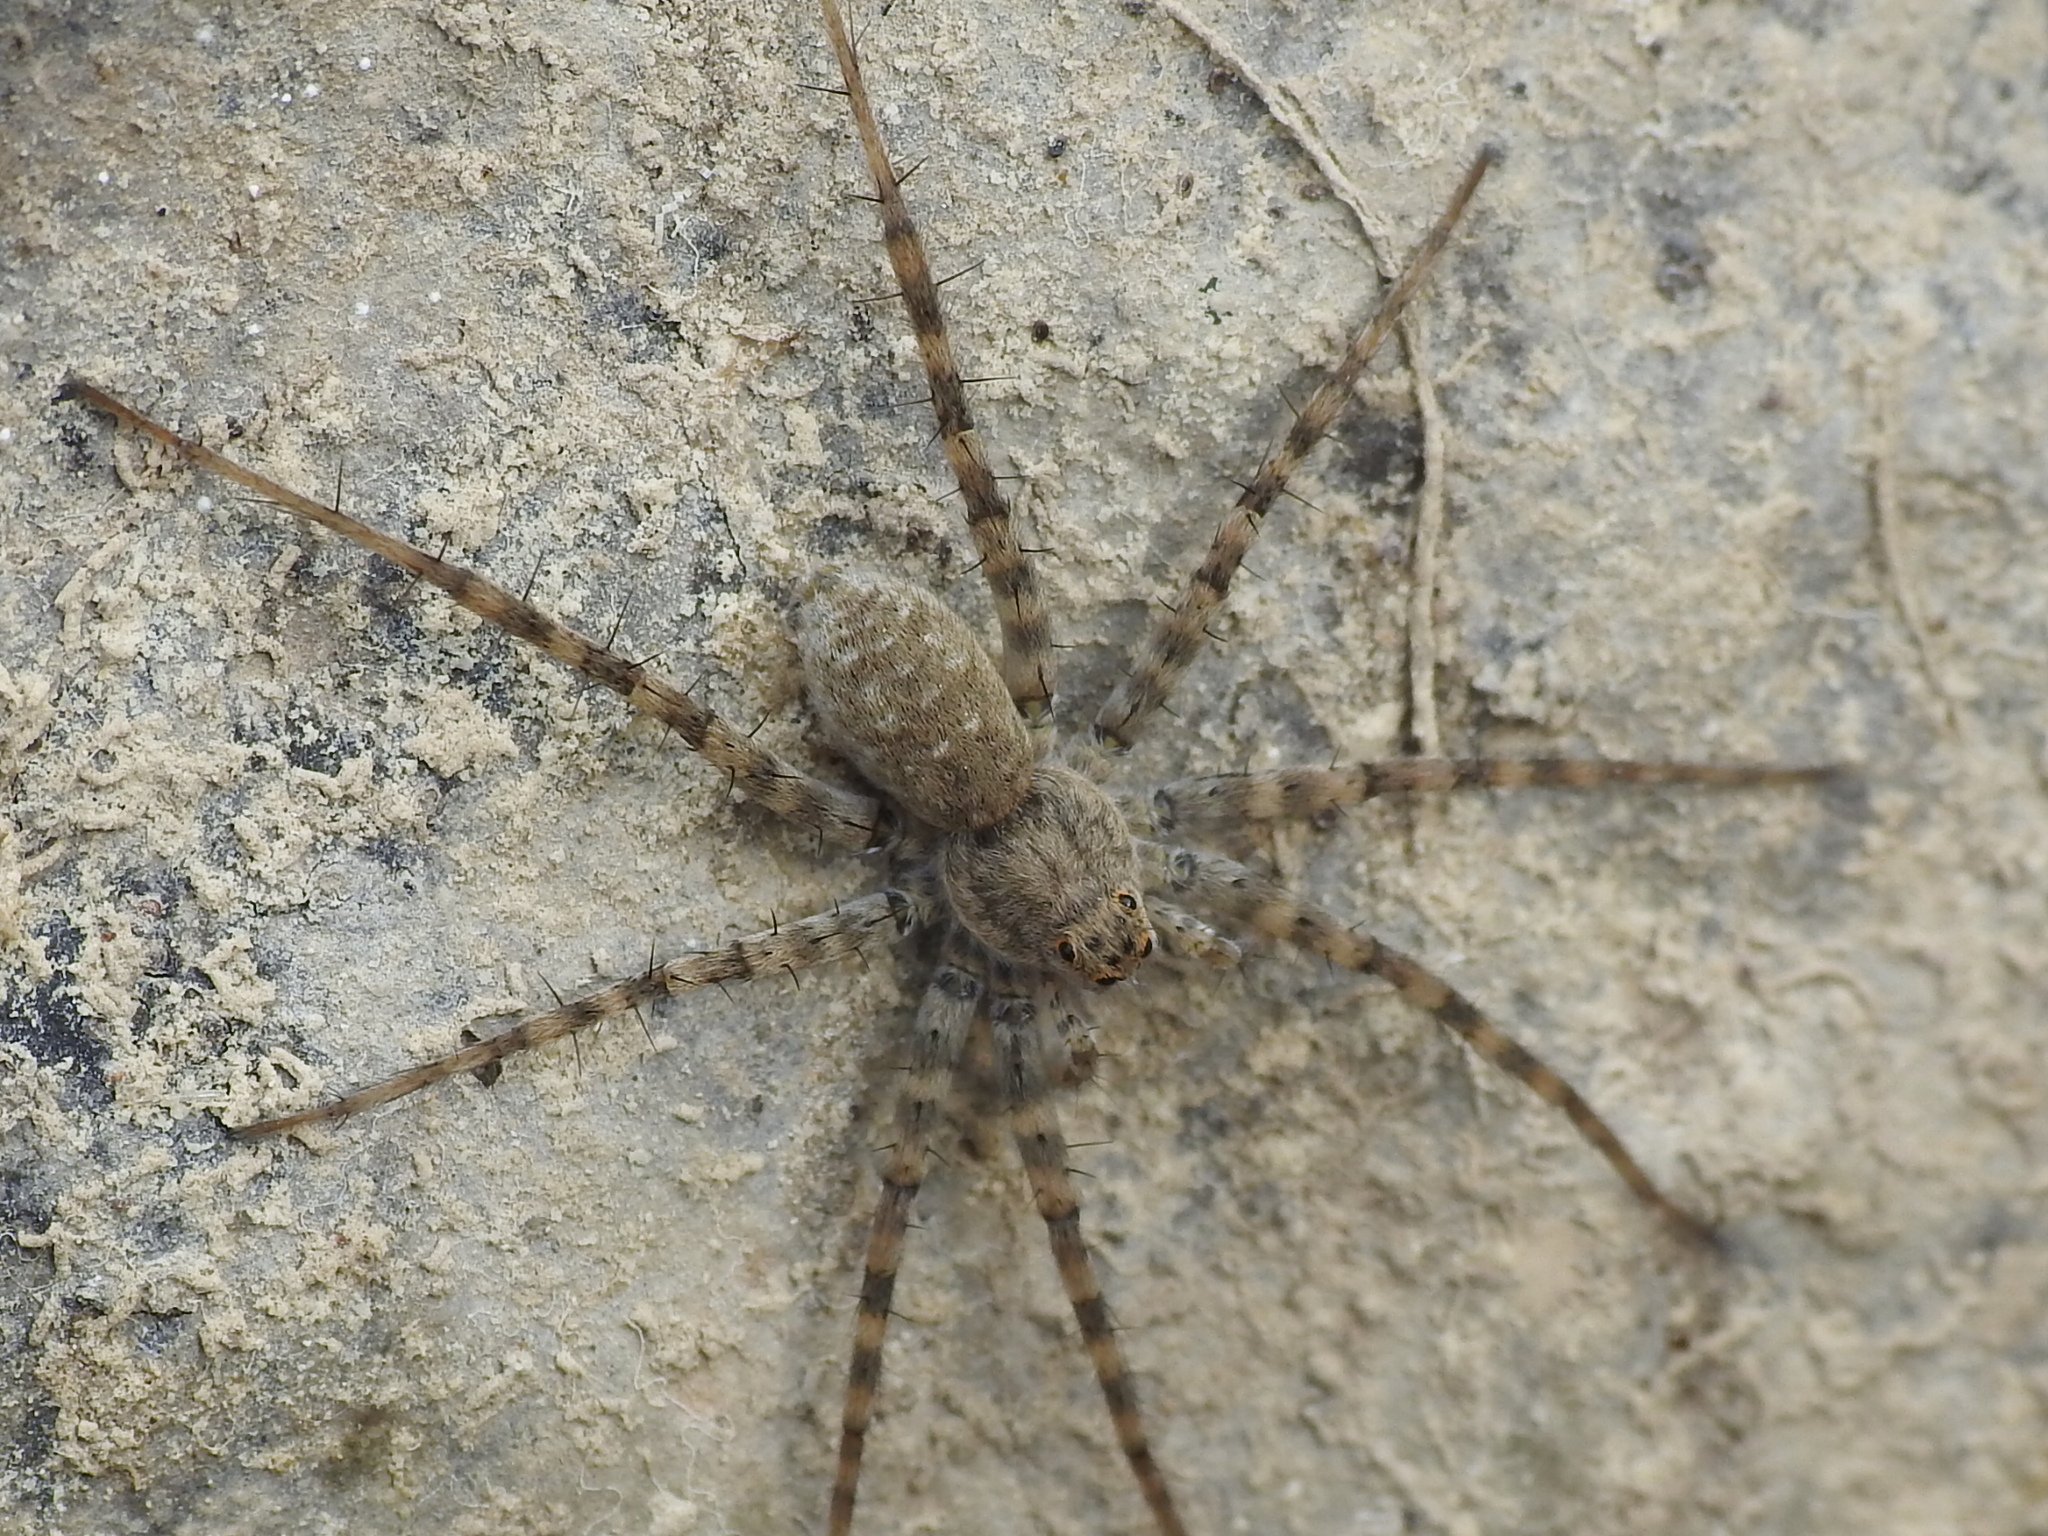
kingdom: Animalia
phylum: Arthropoda
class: Arachnida
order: Araneae
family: Lycosidae
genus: Pardosa
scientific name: Pardosa mercurialis
